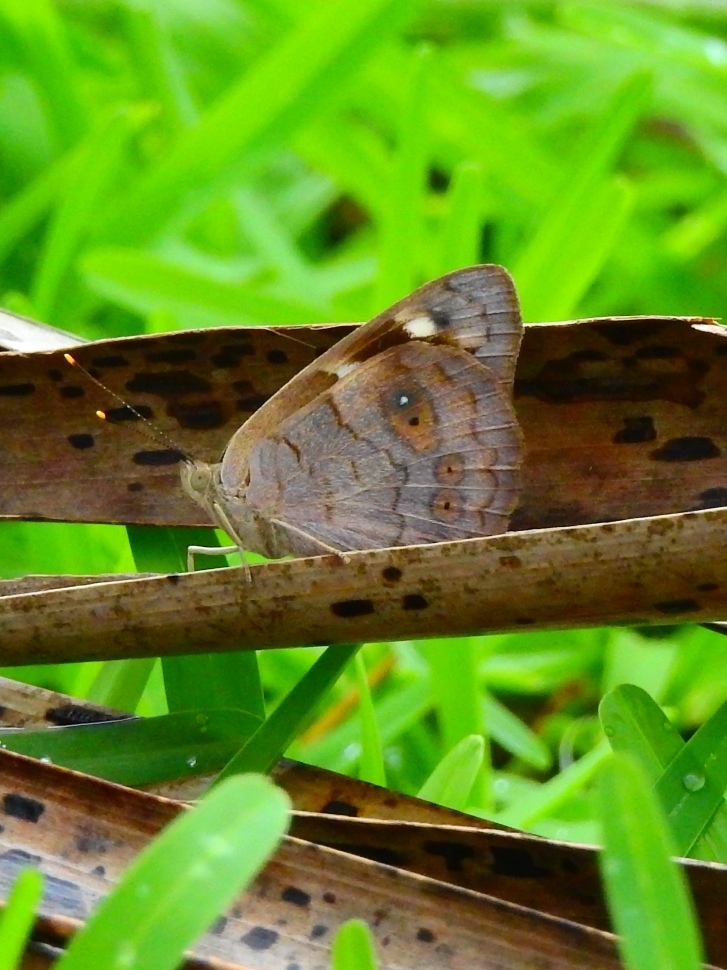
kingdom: Animalia
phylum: Arthropoda
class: Insecta
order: Lepidoptera
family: Nymphalidae
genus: Eunica
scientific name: Eunica monima
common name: Dingy purplewing
